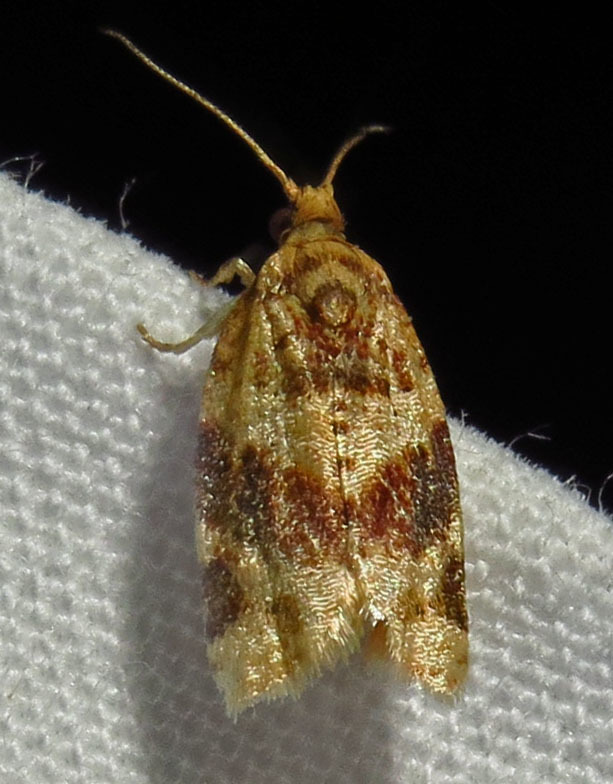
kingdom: Animalia
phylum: Arthropoda
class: Insecta
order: Lepidoptera
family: Tortricidae
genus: Argyrotaenia
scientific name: Argyrotaenia velutinana
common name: Red-banded leafroller moth
